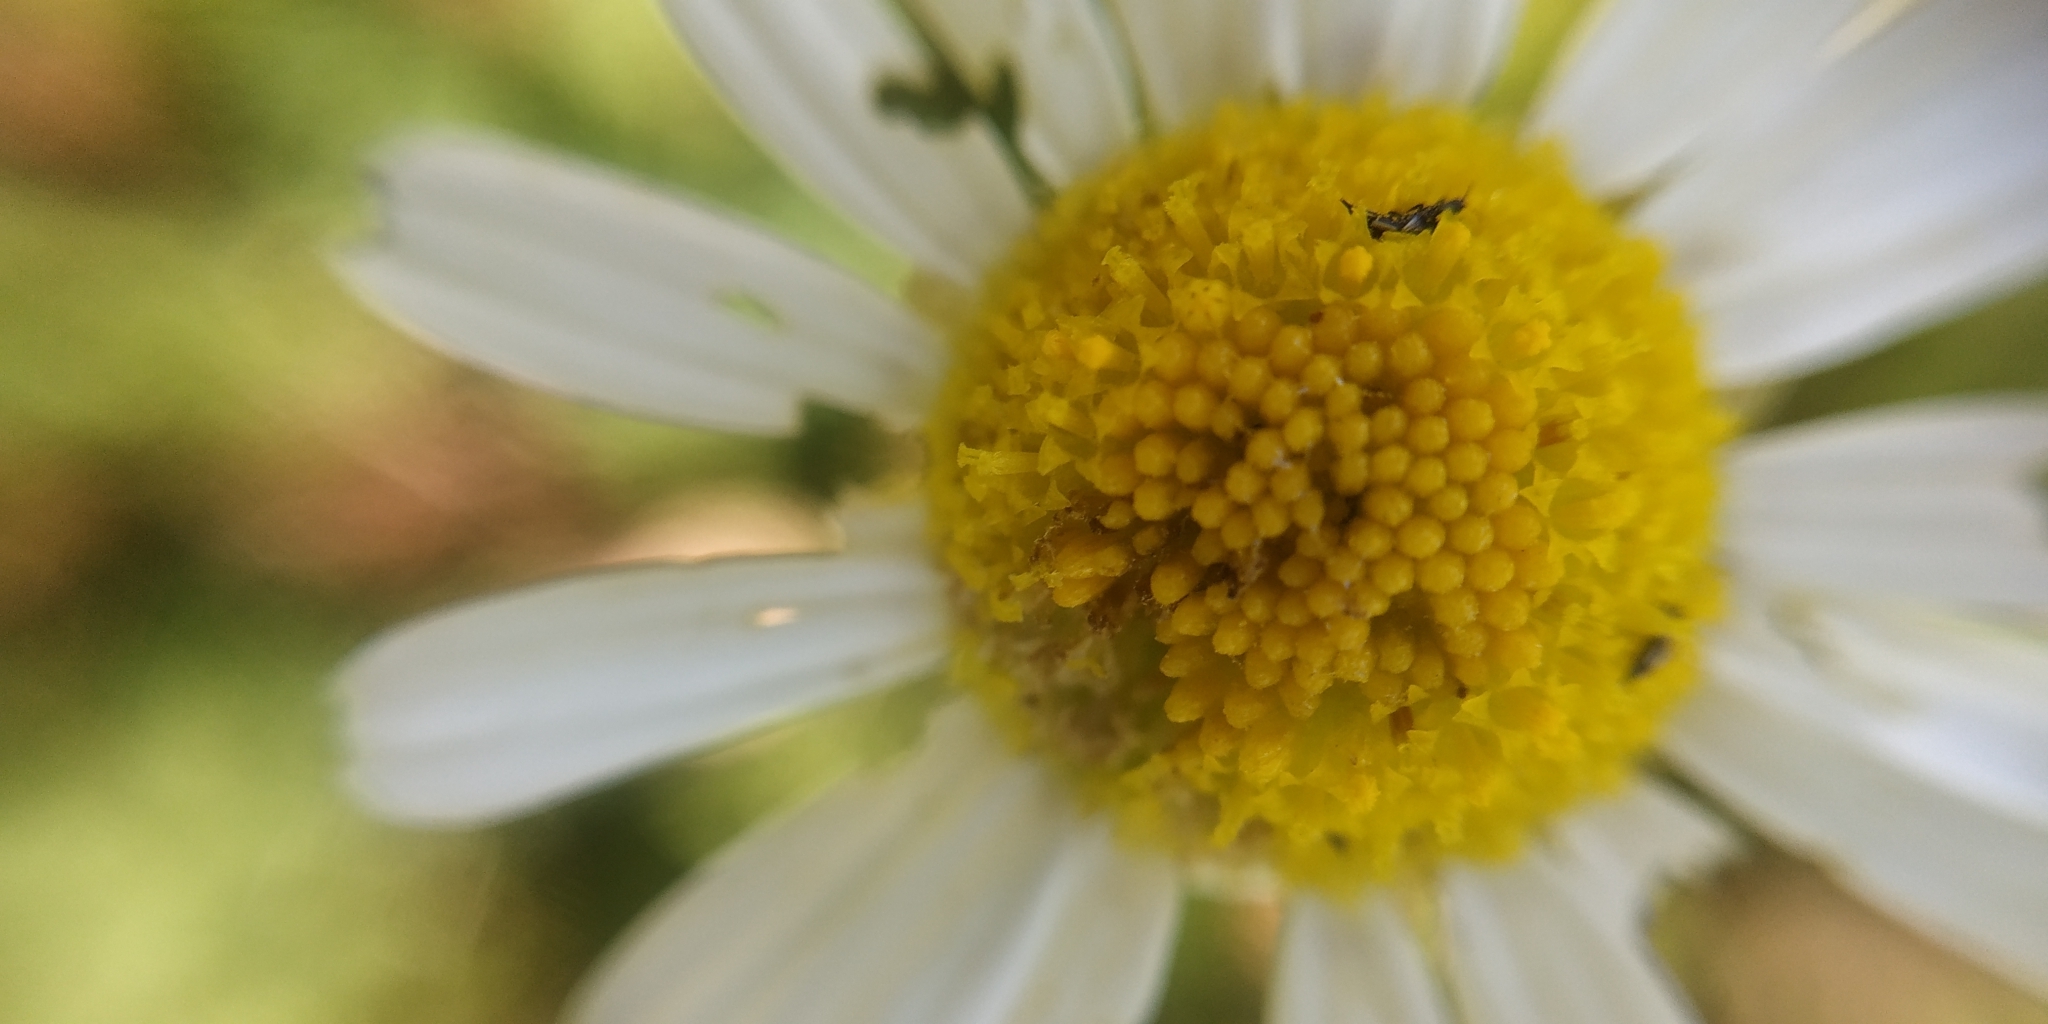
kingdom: Plantae
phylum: Tracheophyta
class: Magnoliopsida
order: Asterales
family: Asteraceae
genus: Tripleurospermum
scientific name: Tripleurospermum inodorum
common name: Scentless mayweed
